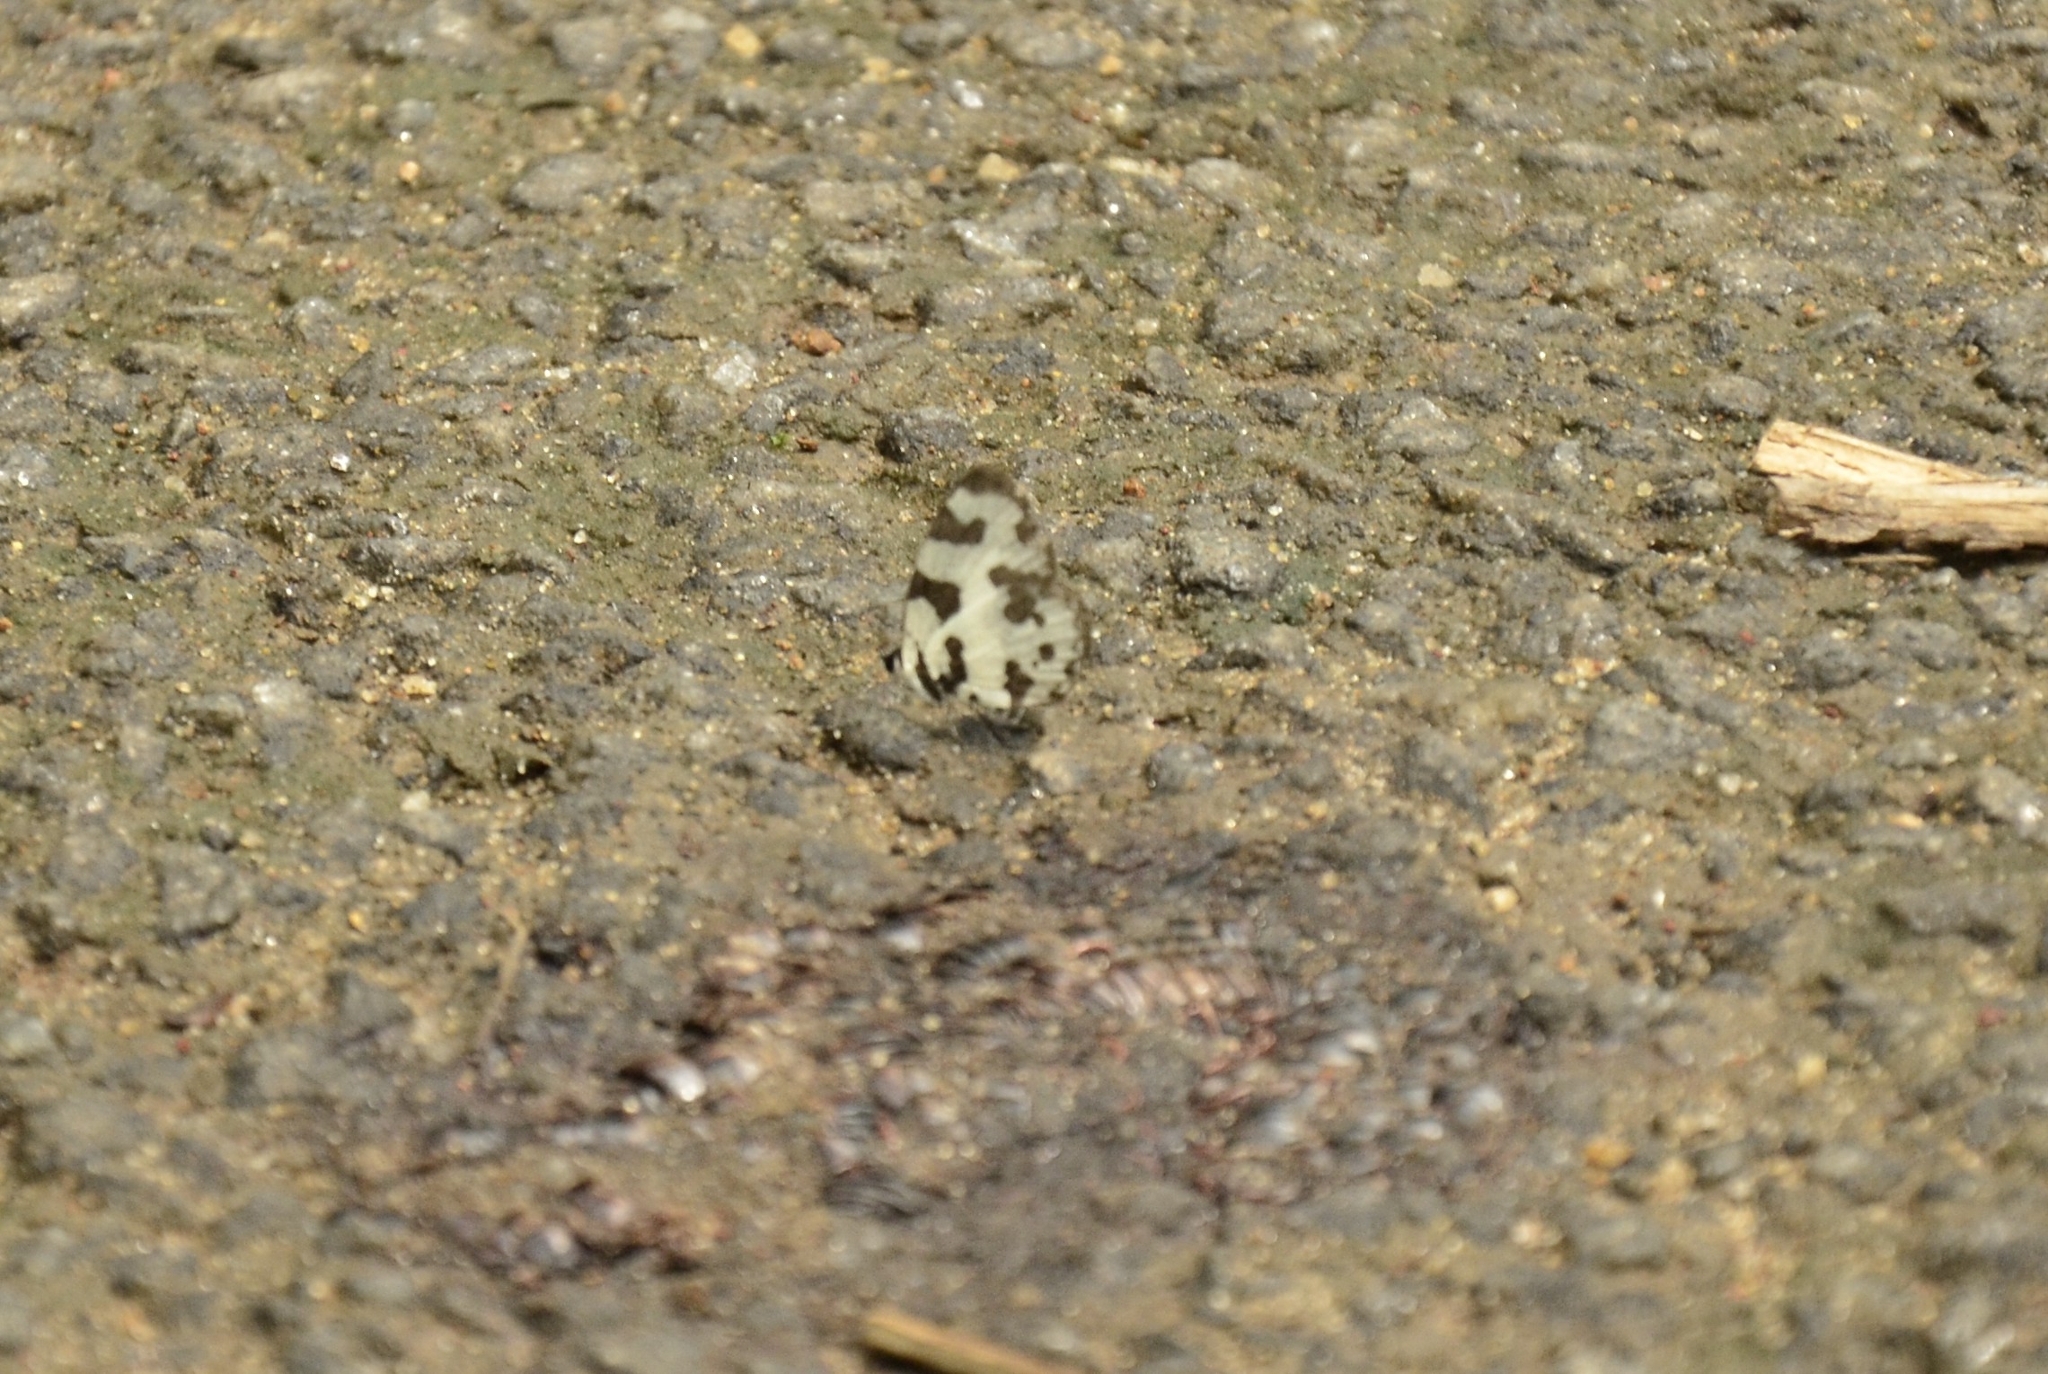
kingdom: Animalia
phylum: Arthropoda
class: Insecta
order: Lepidoptera
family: Lycaenidae
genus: Caleta
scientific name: Caleta decidia
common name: Angled pierrot
